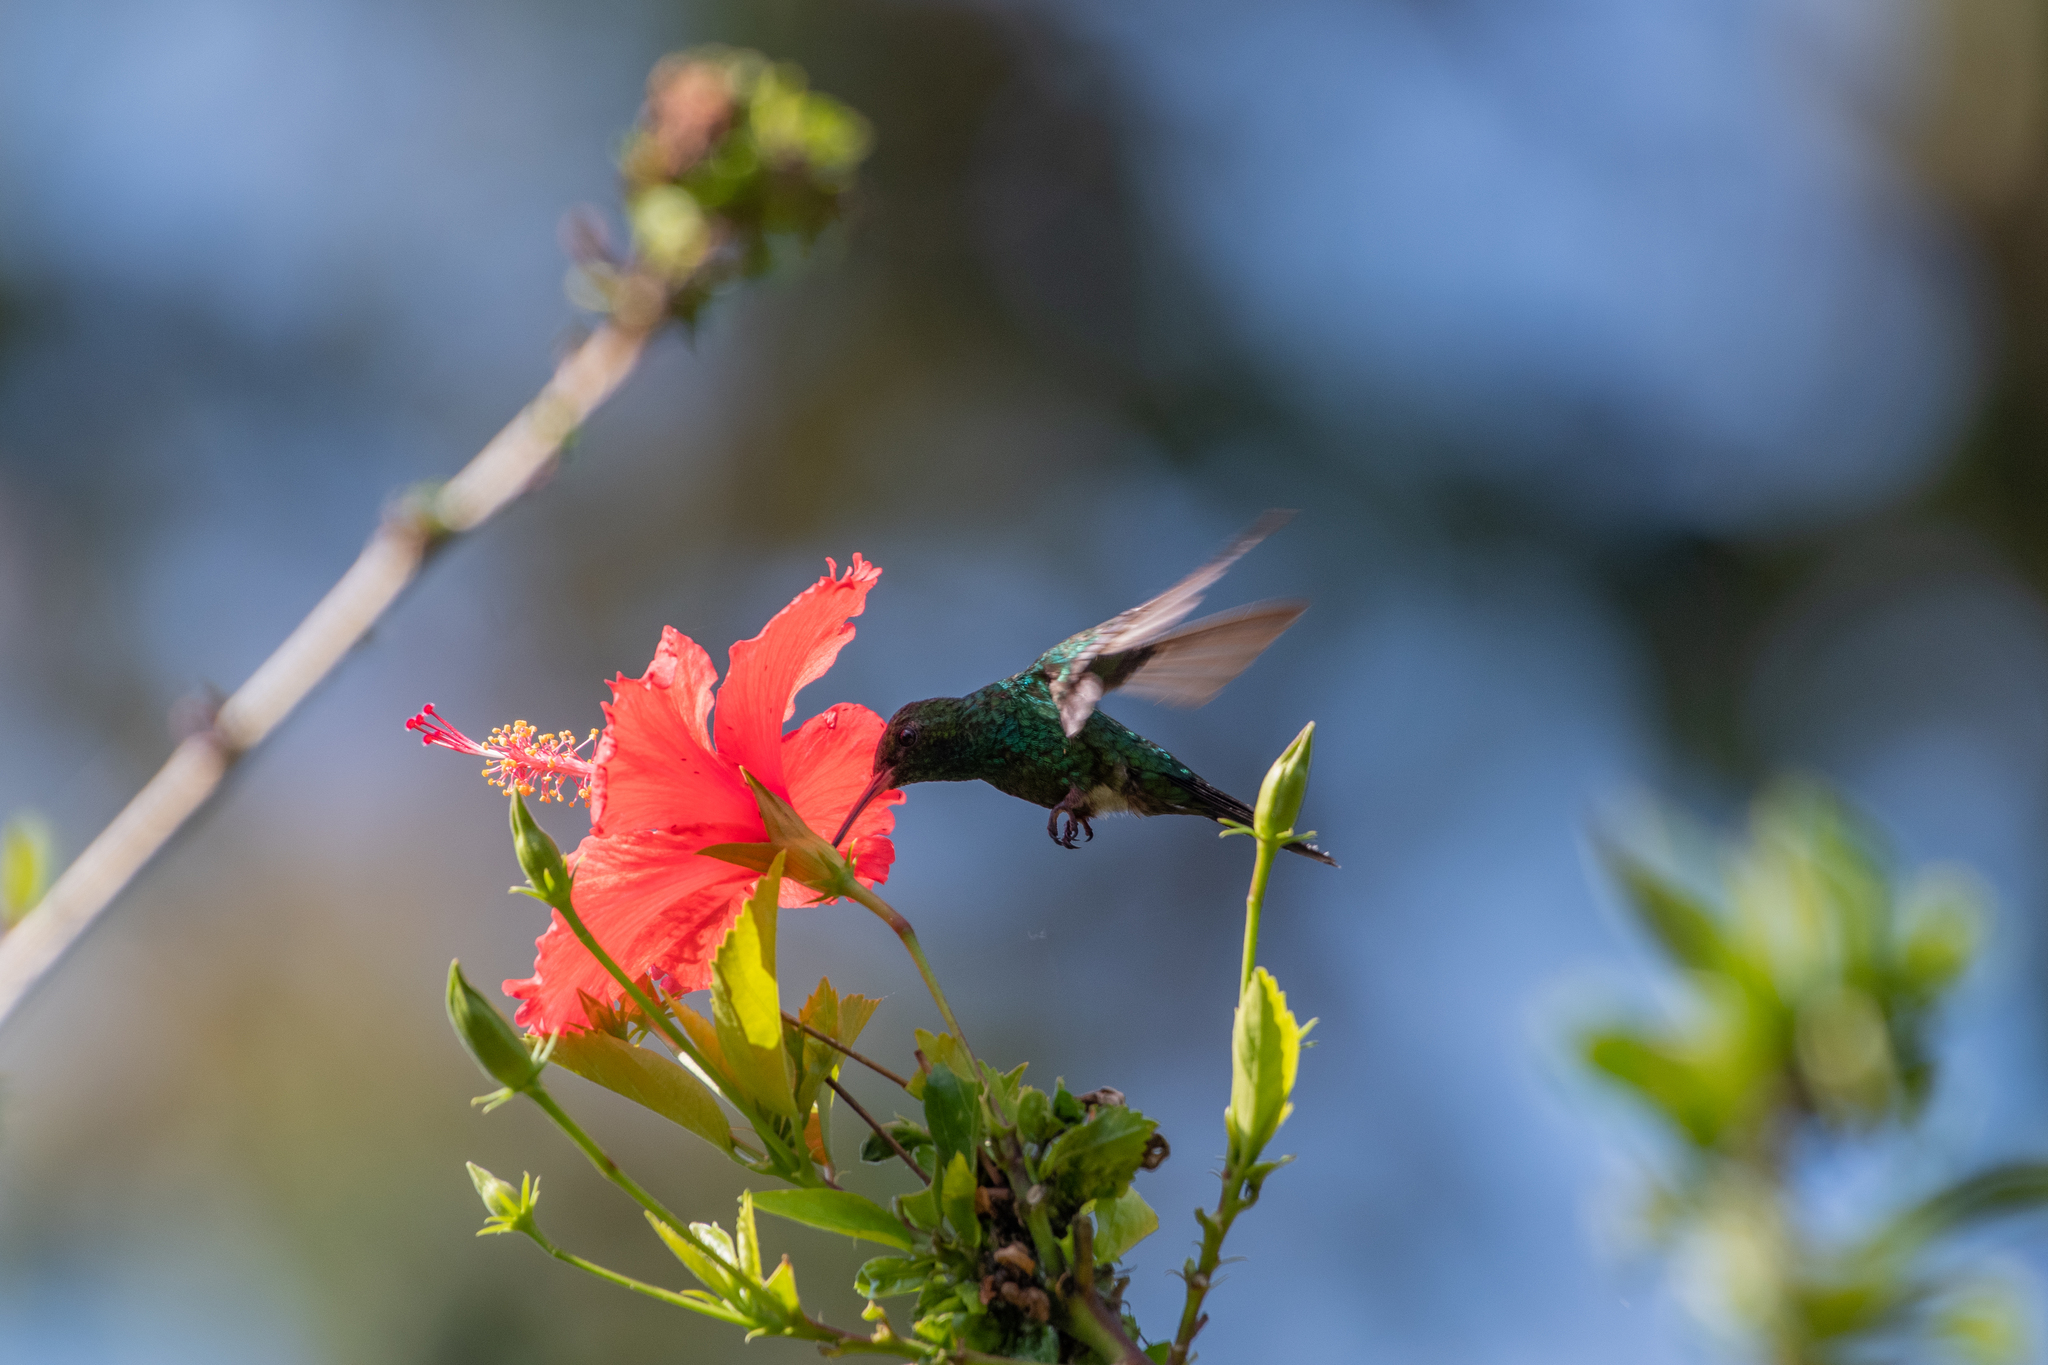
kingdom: Animalia
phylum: Chordata
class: Aves
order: Apodiformes
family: Trochilidae
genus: Cynanthus
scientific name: Cynanthus canivetii
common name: Canivet's emerald
